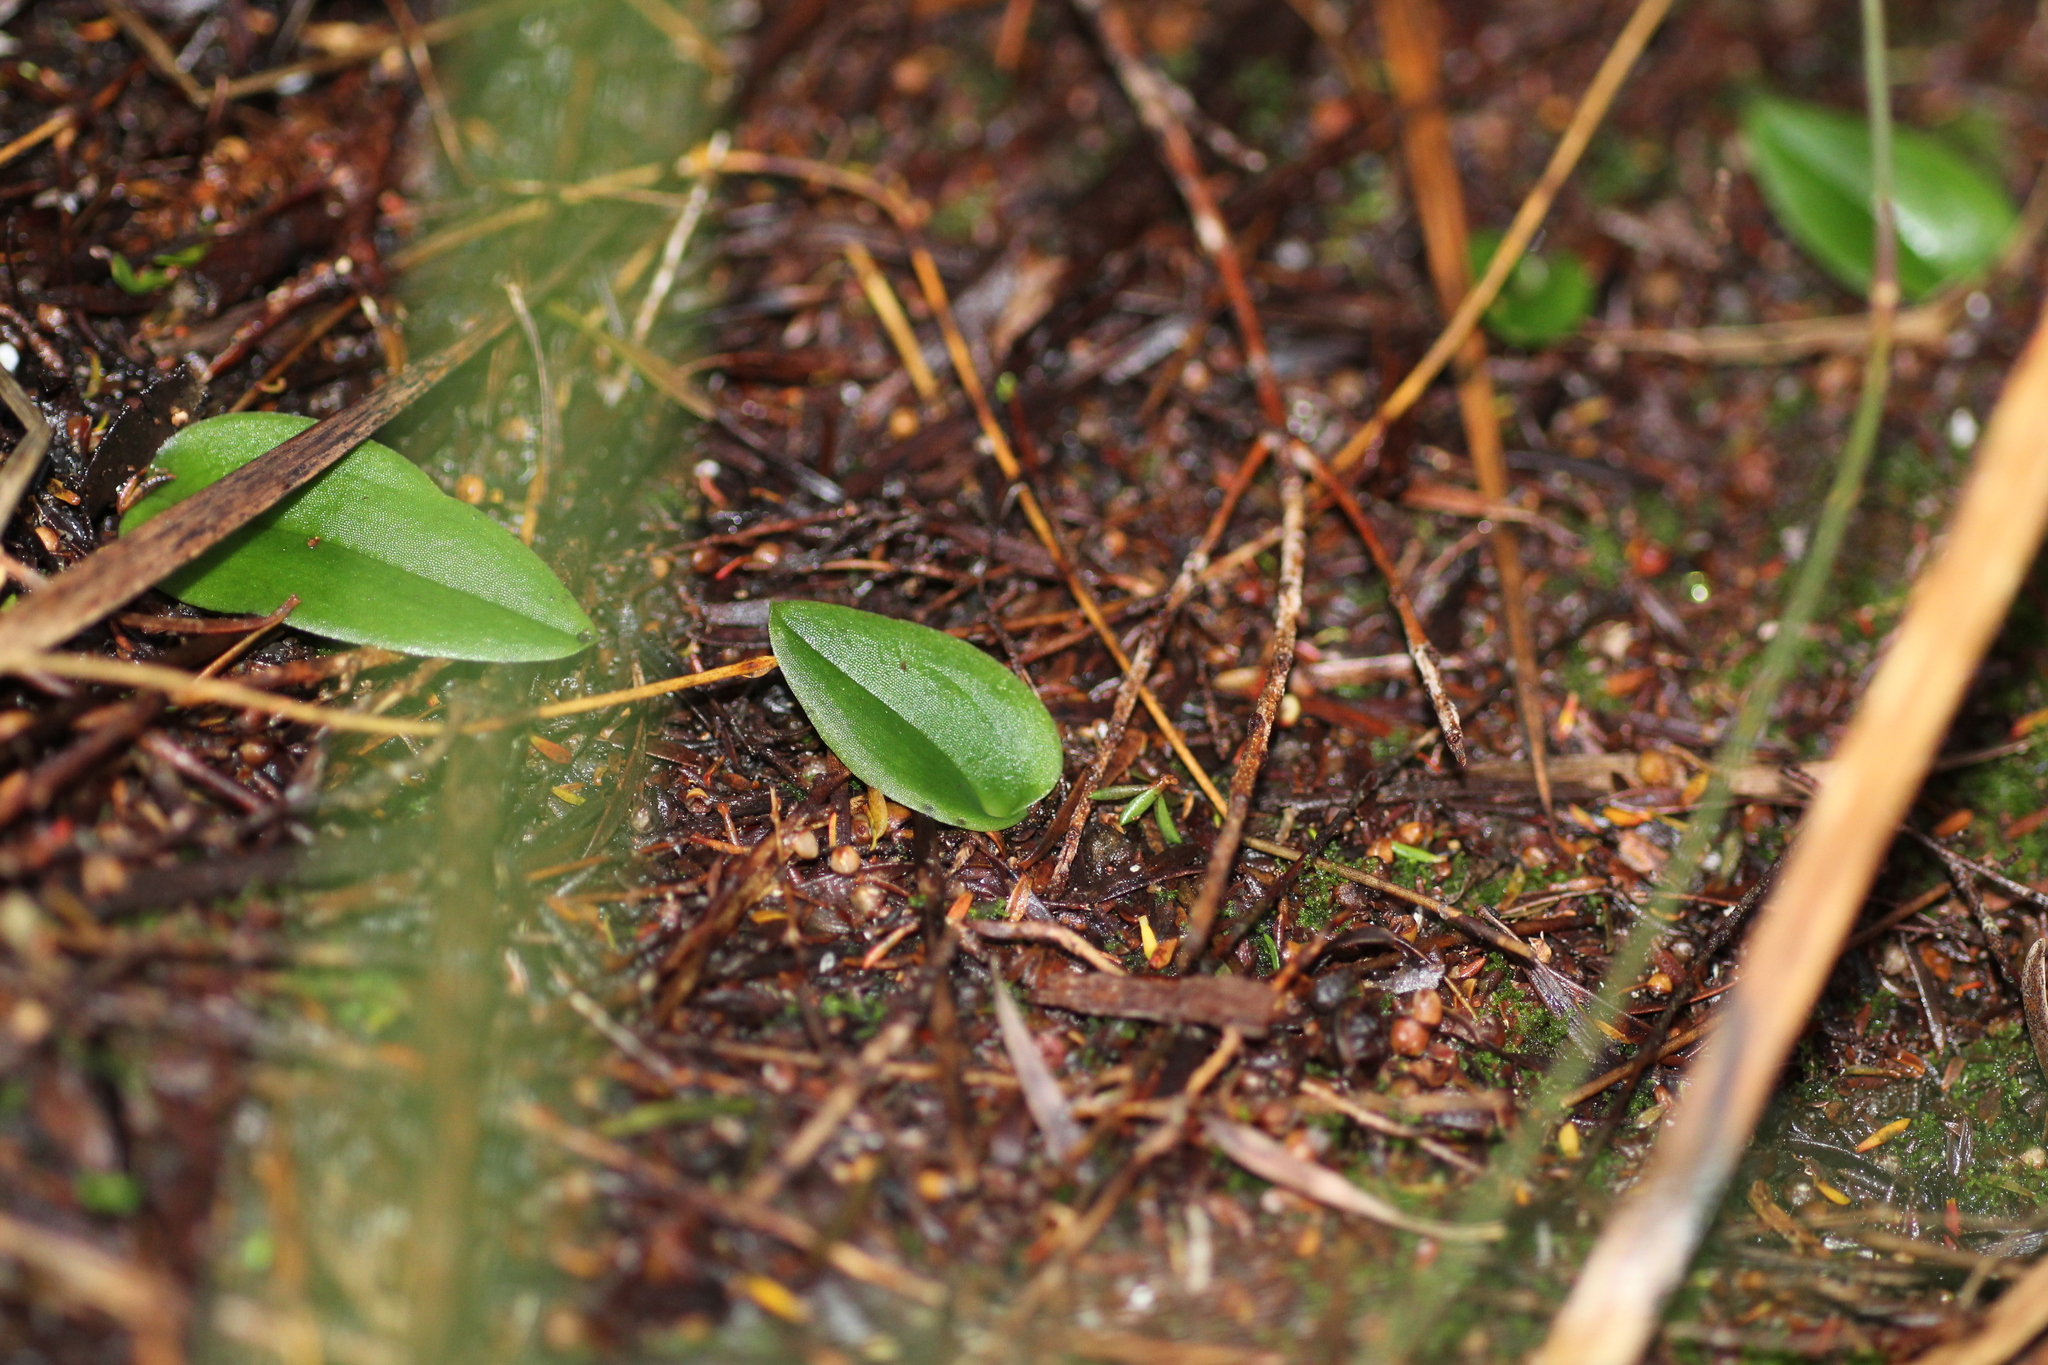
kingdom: Plantae
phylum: Tracheophyta
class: Liliopsida
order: Asparagales
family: Orchidaceae
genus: Leptoceras
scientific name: Leptoceras menziesii
